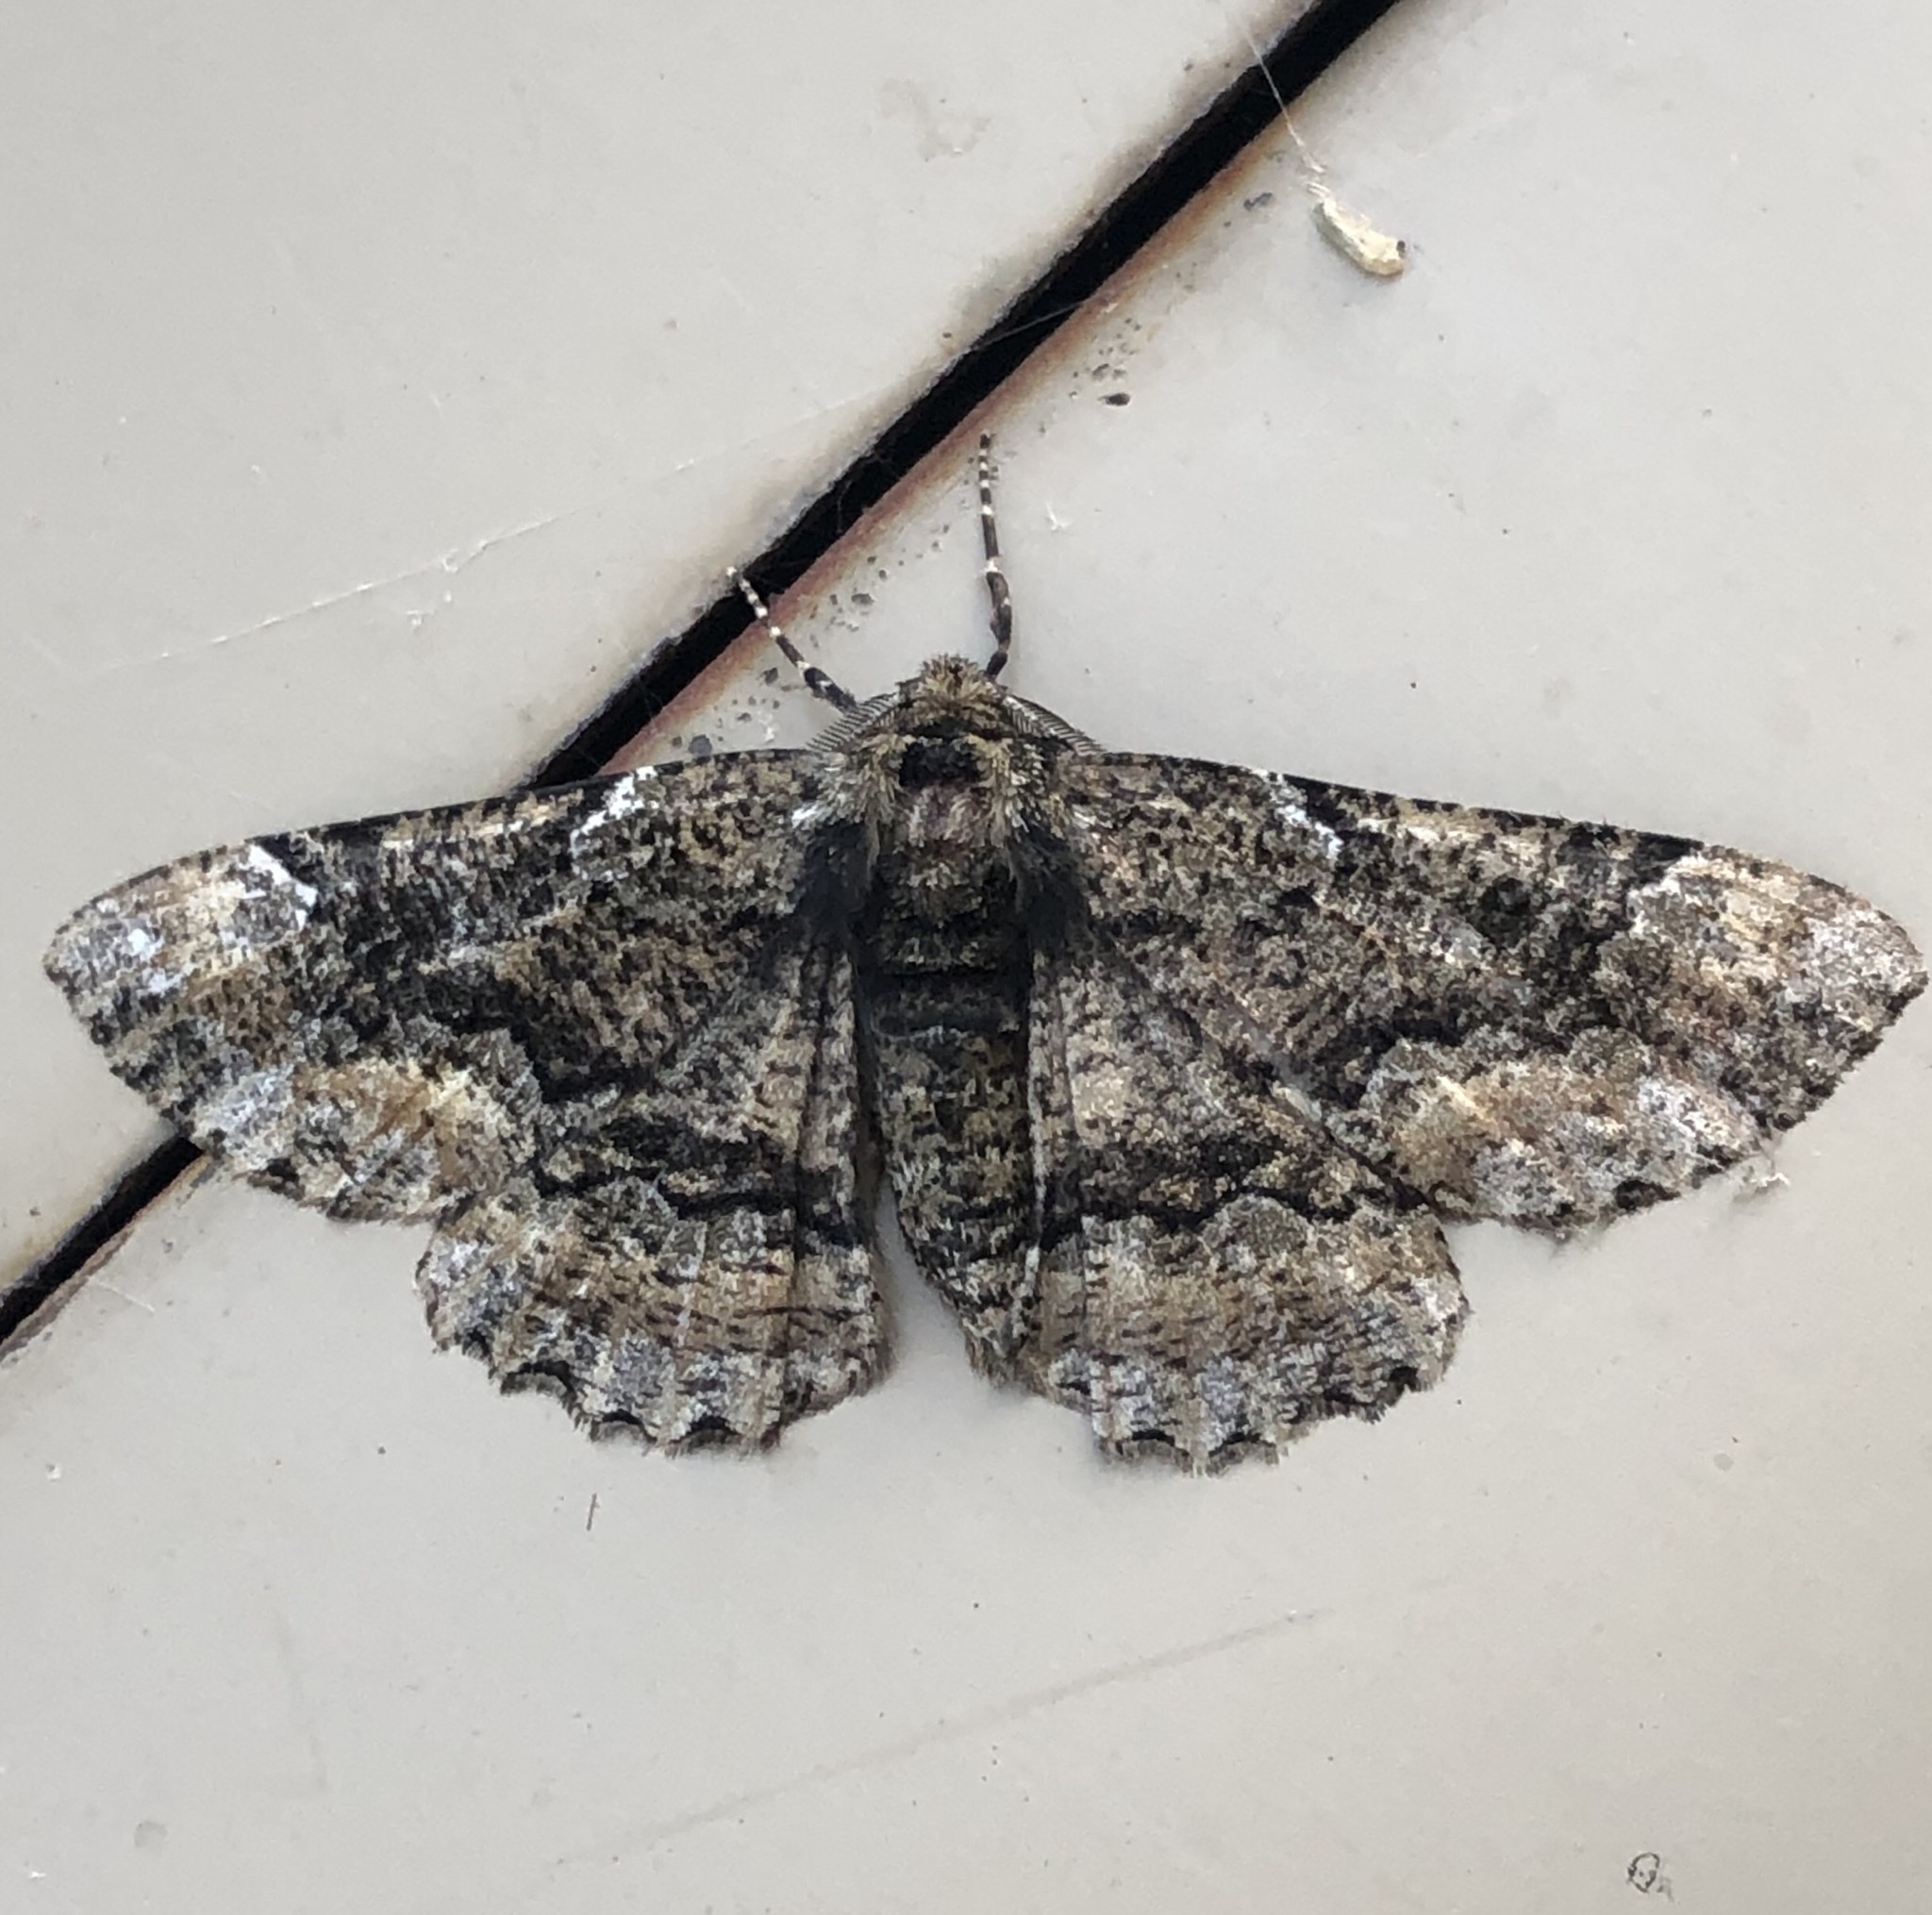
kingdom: Animalia
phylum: Arthropoda
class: Insecta
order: Lepidoptera
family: Geometridae
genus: Phaeoura
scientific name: Phaeoura quernaria
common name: Oak beauty
